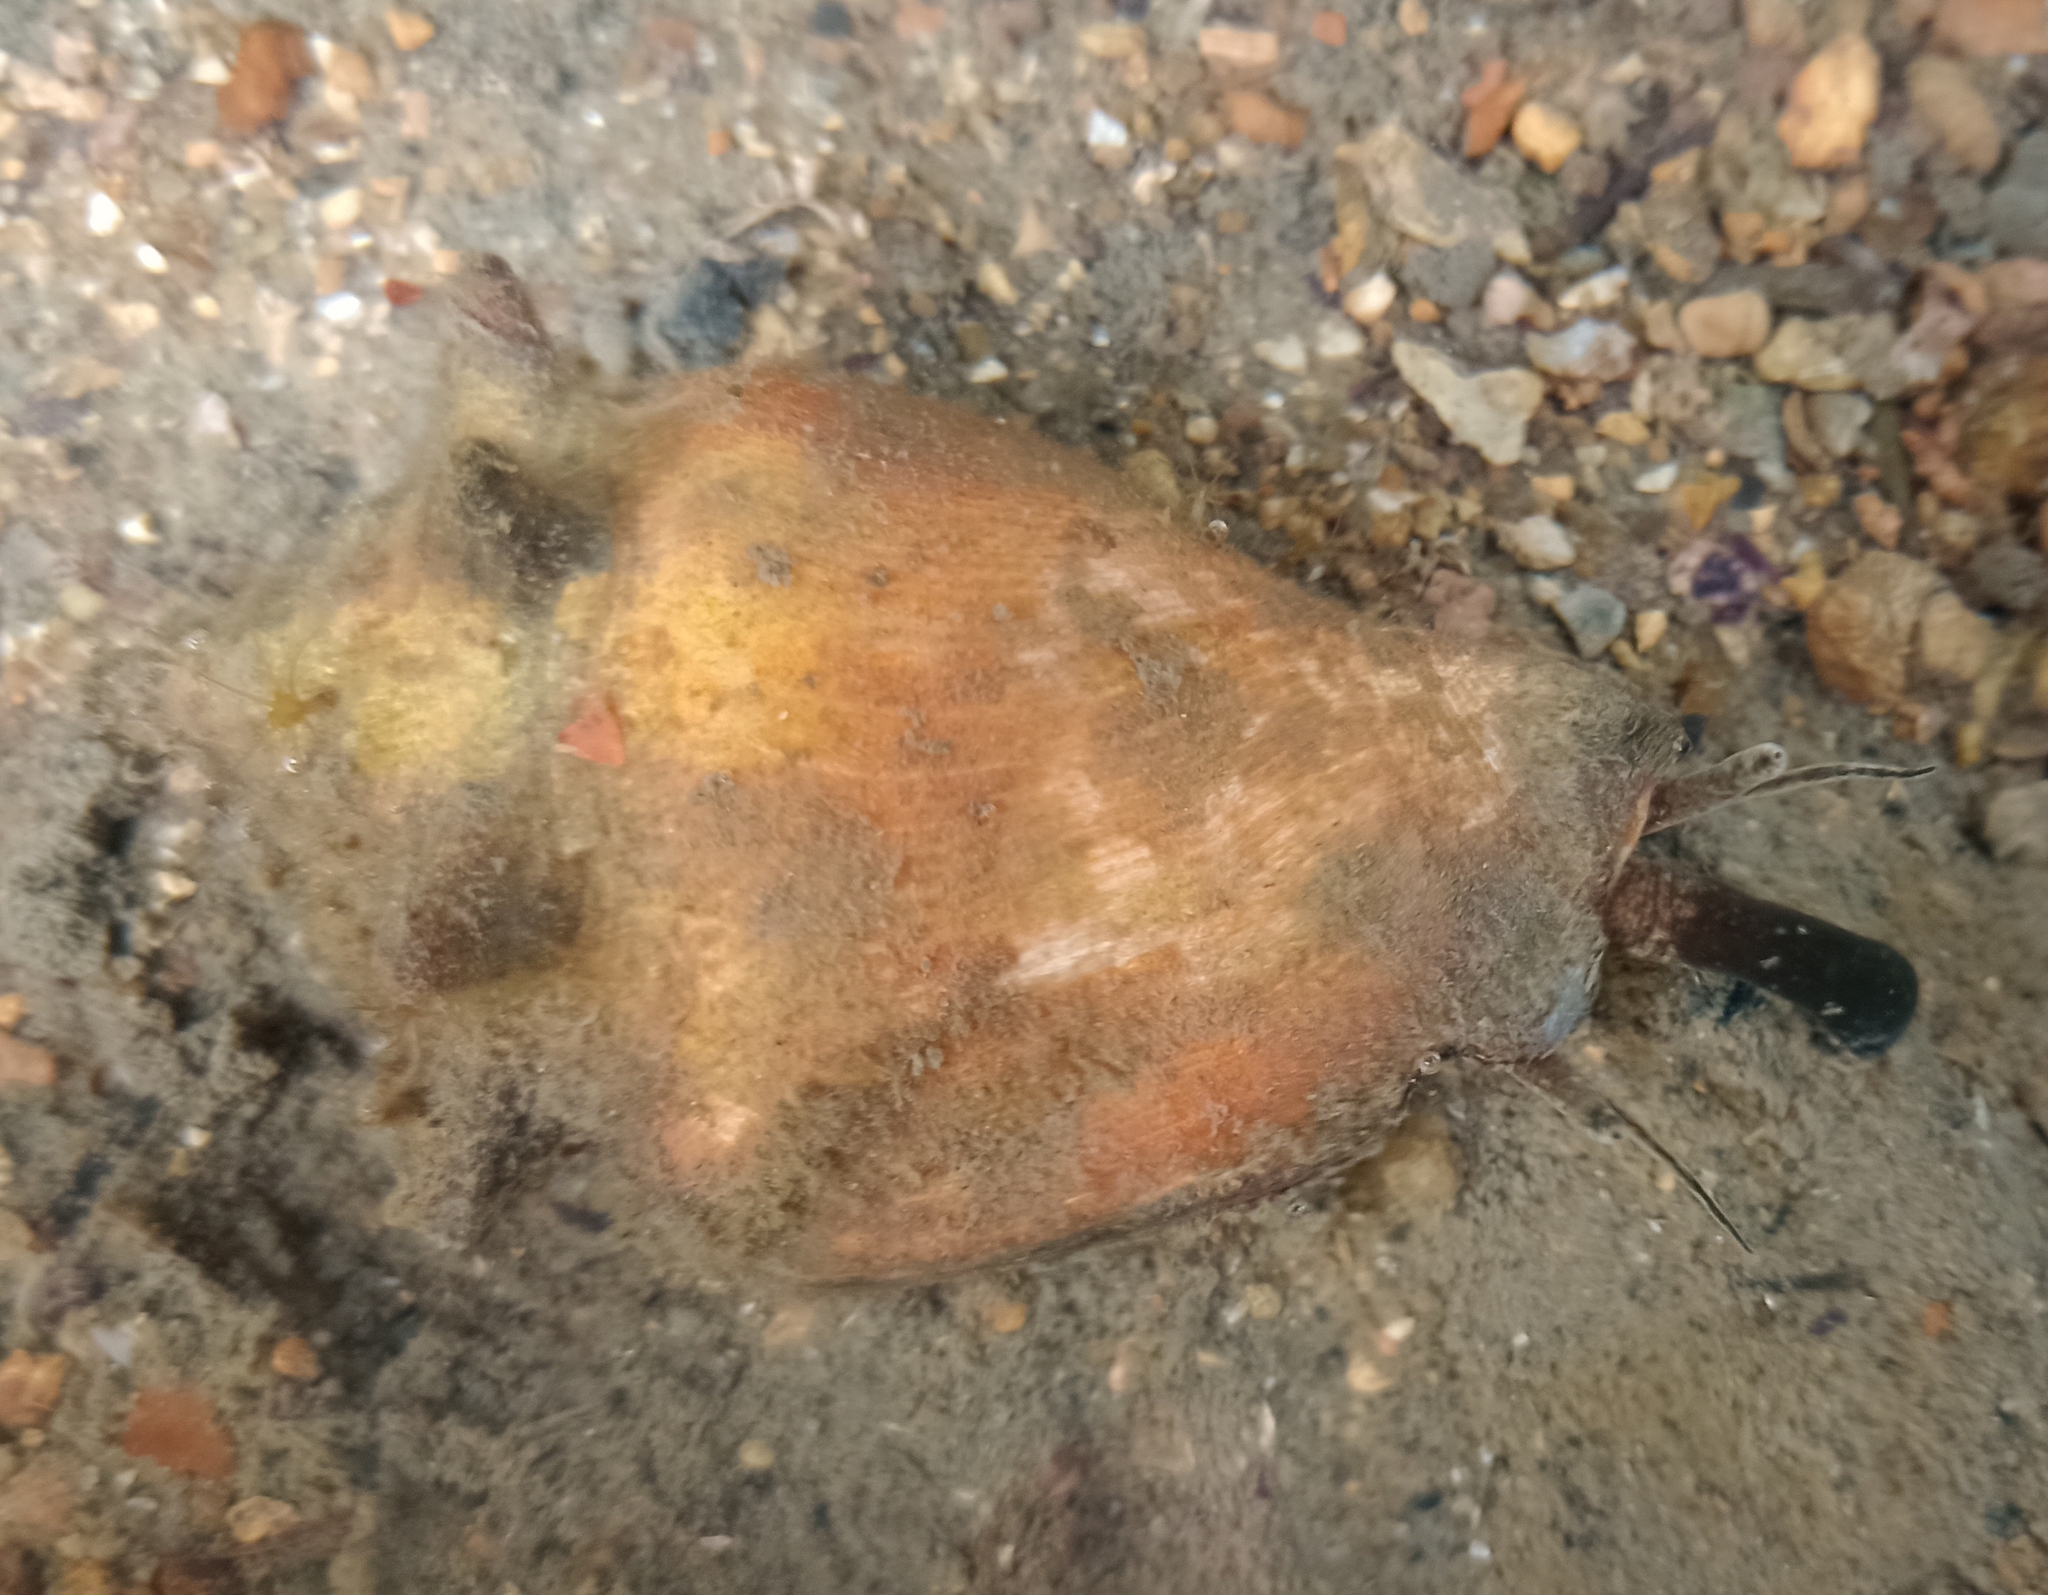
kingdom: Animalia
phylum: Mollusca
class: Gastropoda
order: Littorinimorpha
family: Strombidae
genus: Strombus
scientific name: Strombus pugilis
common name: West indian fighting conch
